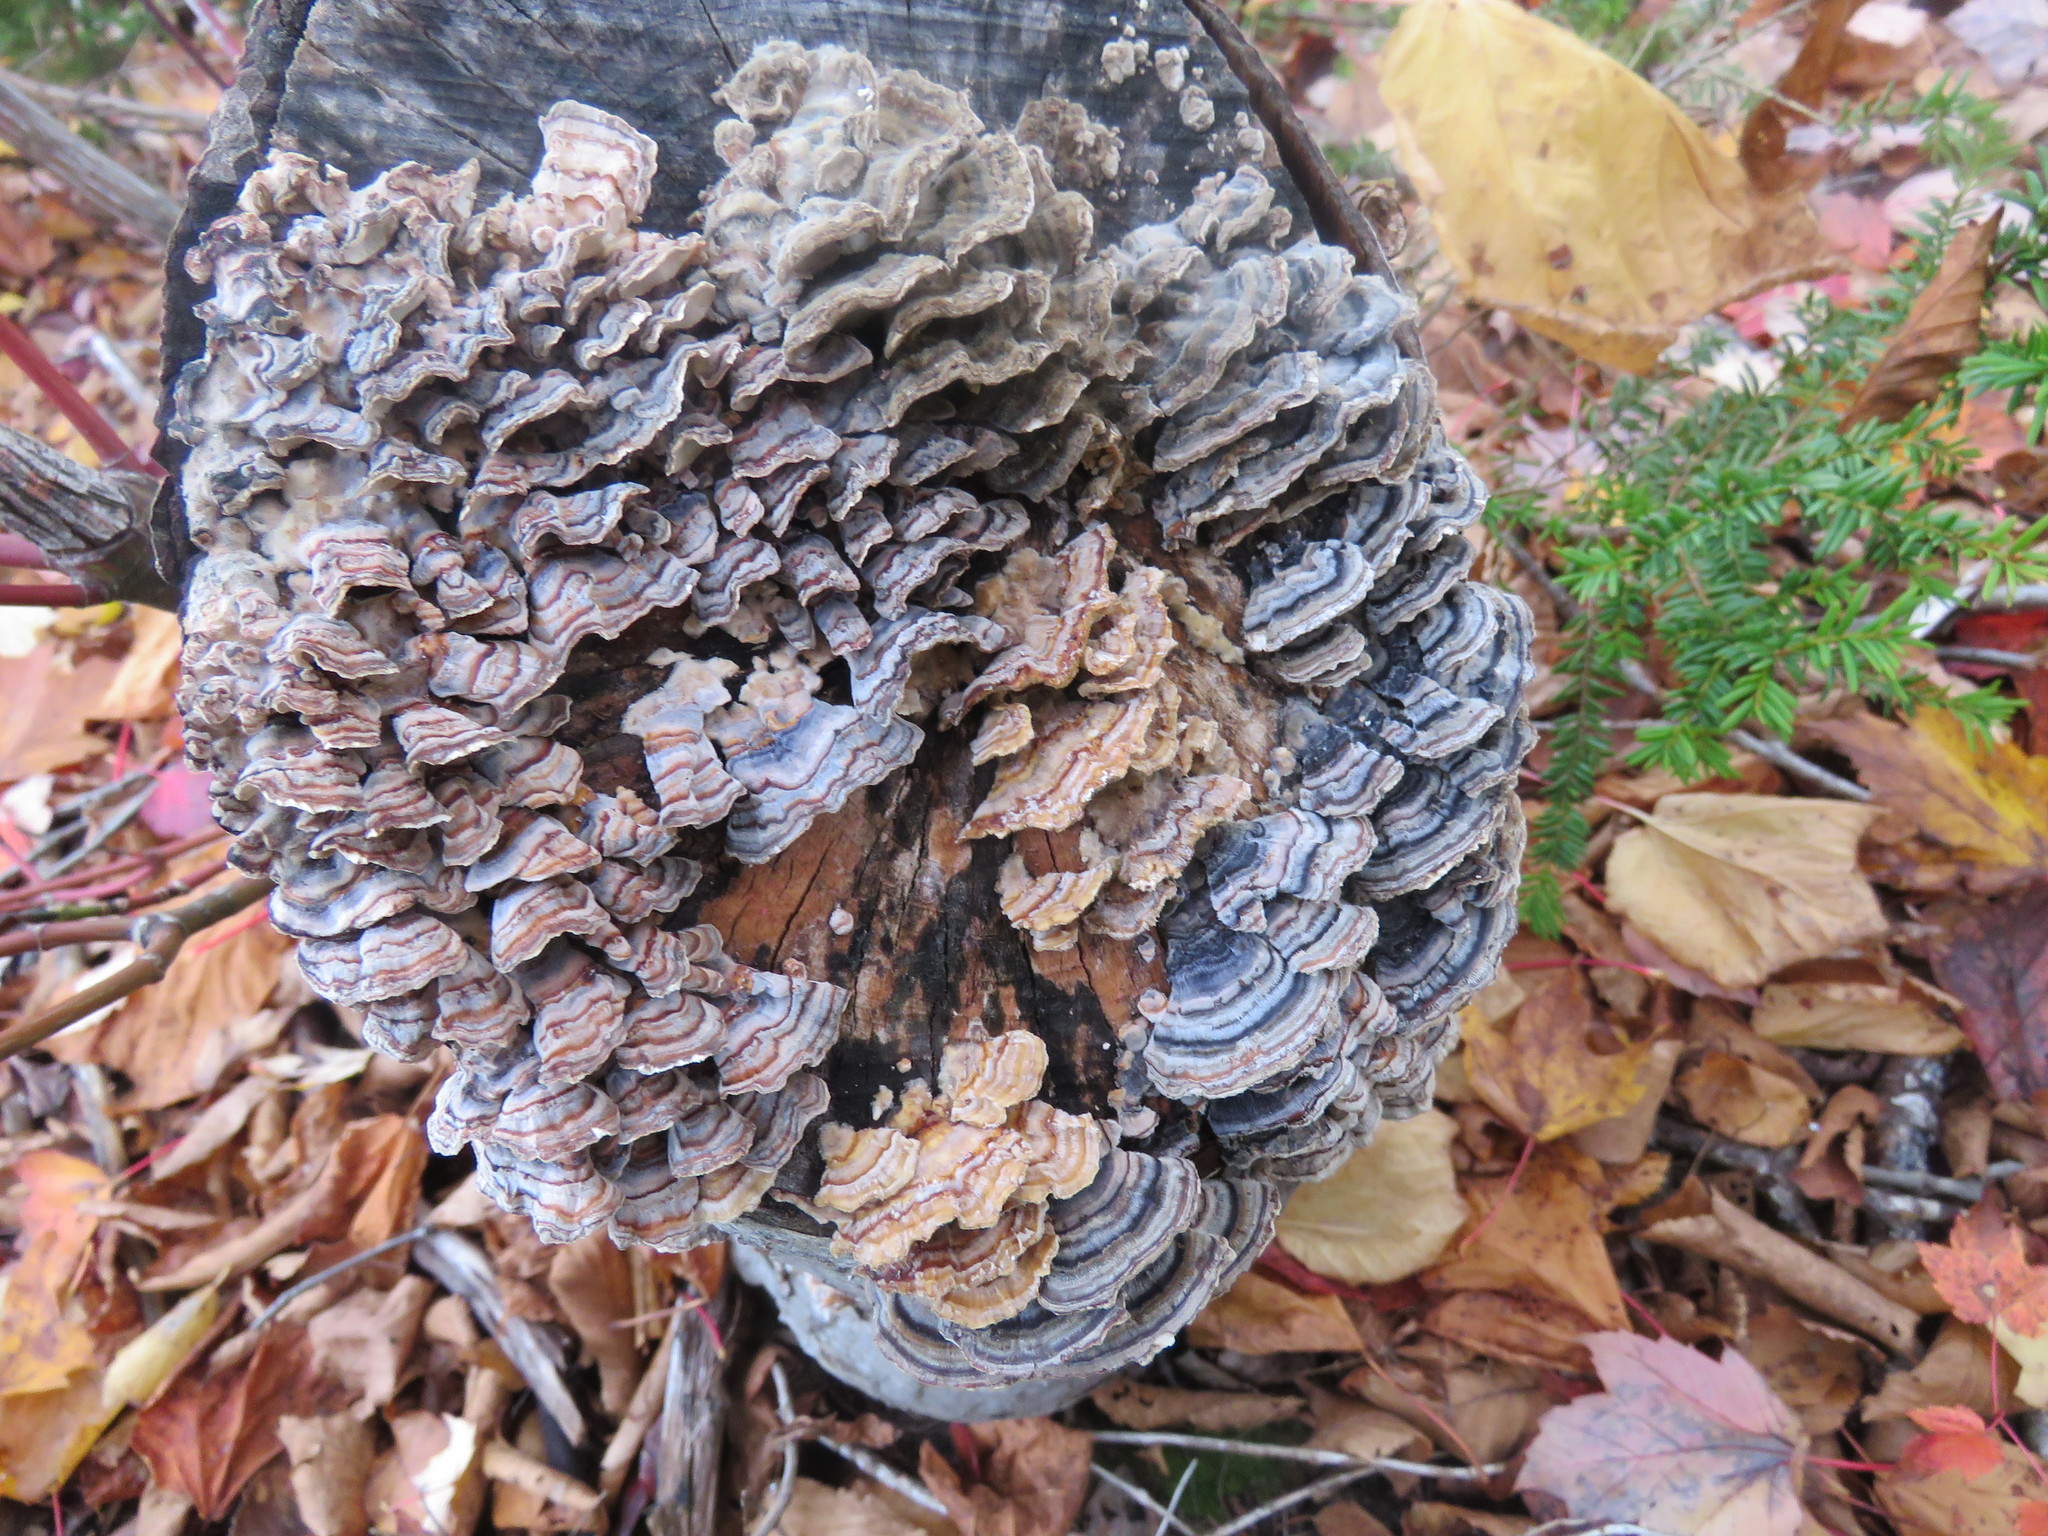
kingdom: Fungi
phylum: Basidiomycota
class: Agaricomycetes
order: Polyporales
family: Polyporaceae
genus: Trametes
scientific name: Trametes versicolor
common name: Turkeytail
